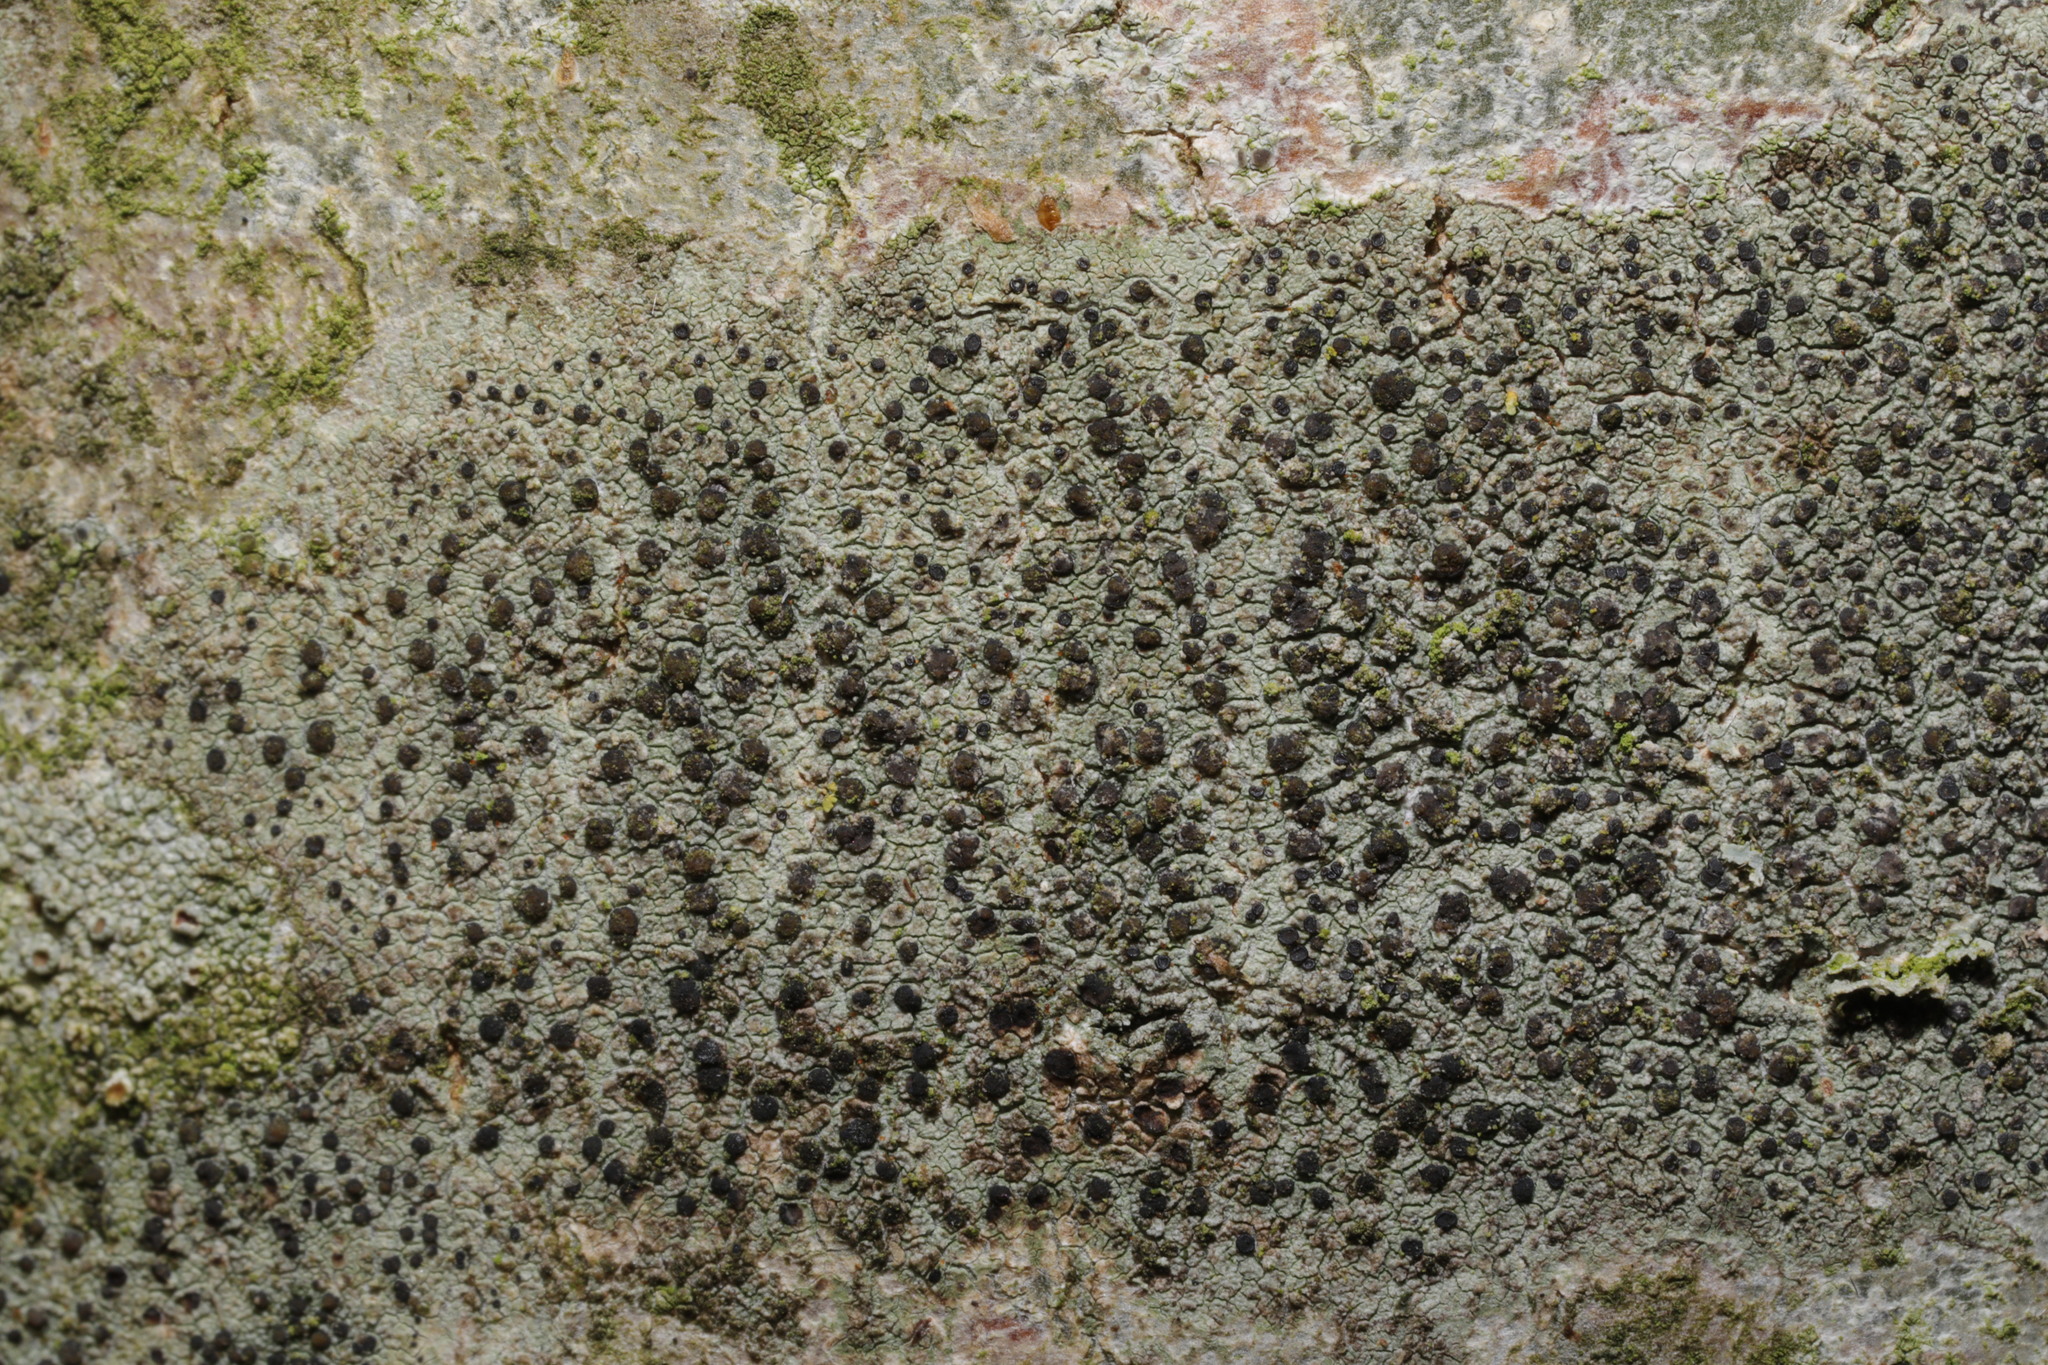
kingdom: Fungi
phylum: Ascomycota
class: Lecanoromycetes
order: Lecanorales
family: Lecanoraceae
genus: Lecidella
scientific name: Lecidella elaeochroma
